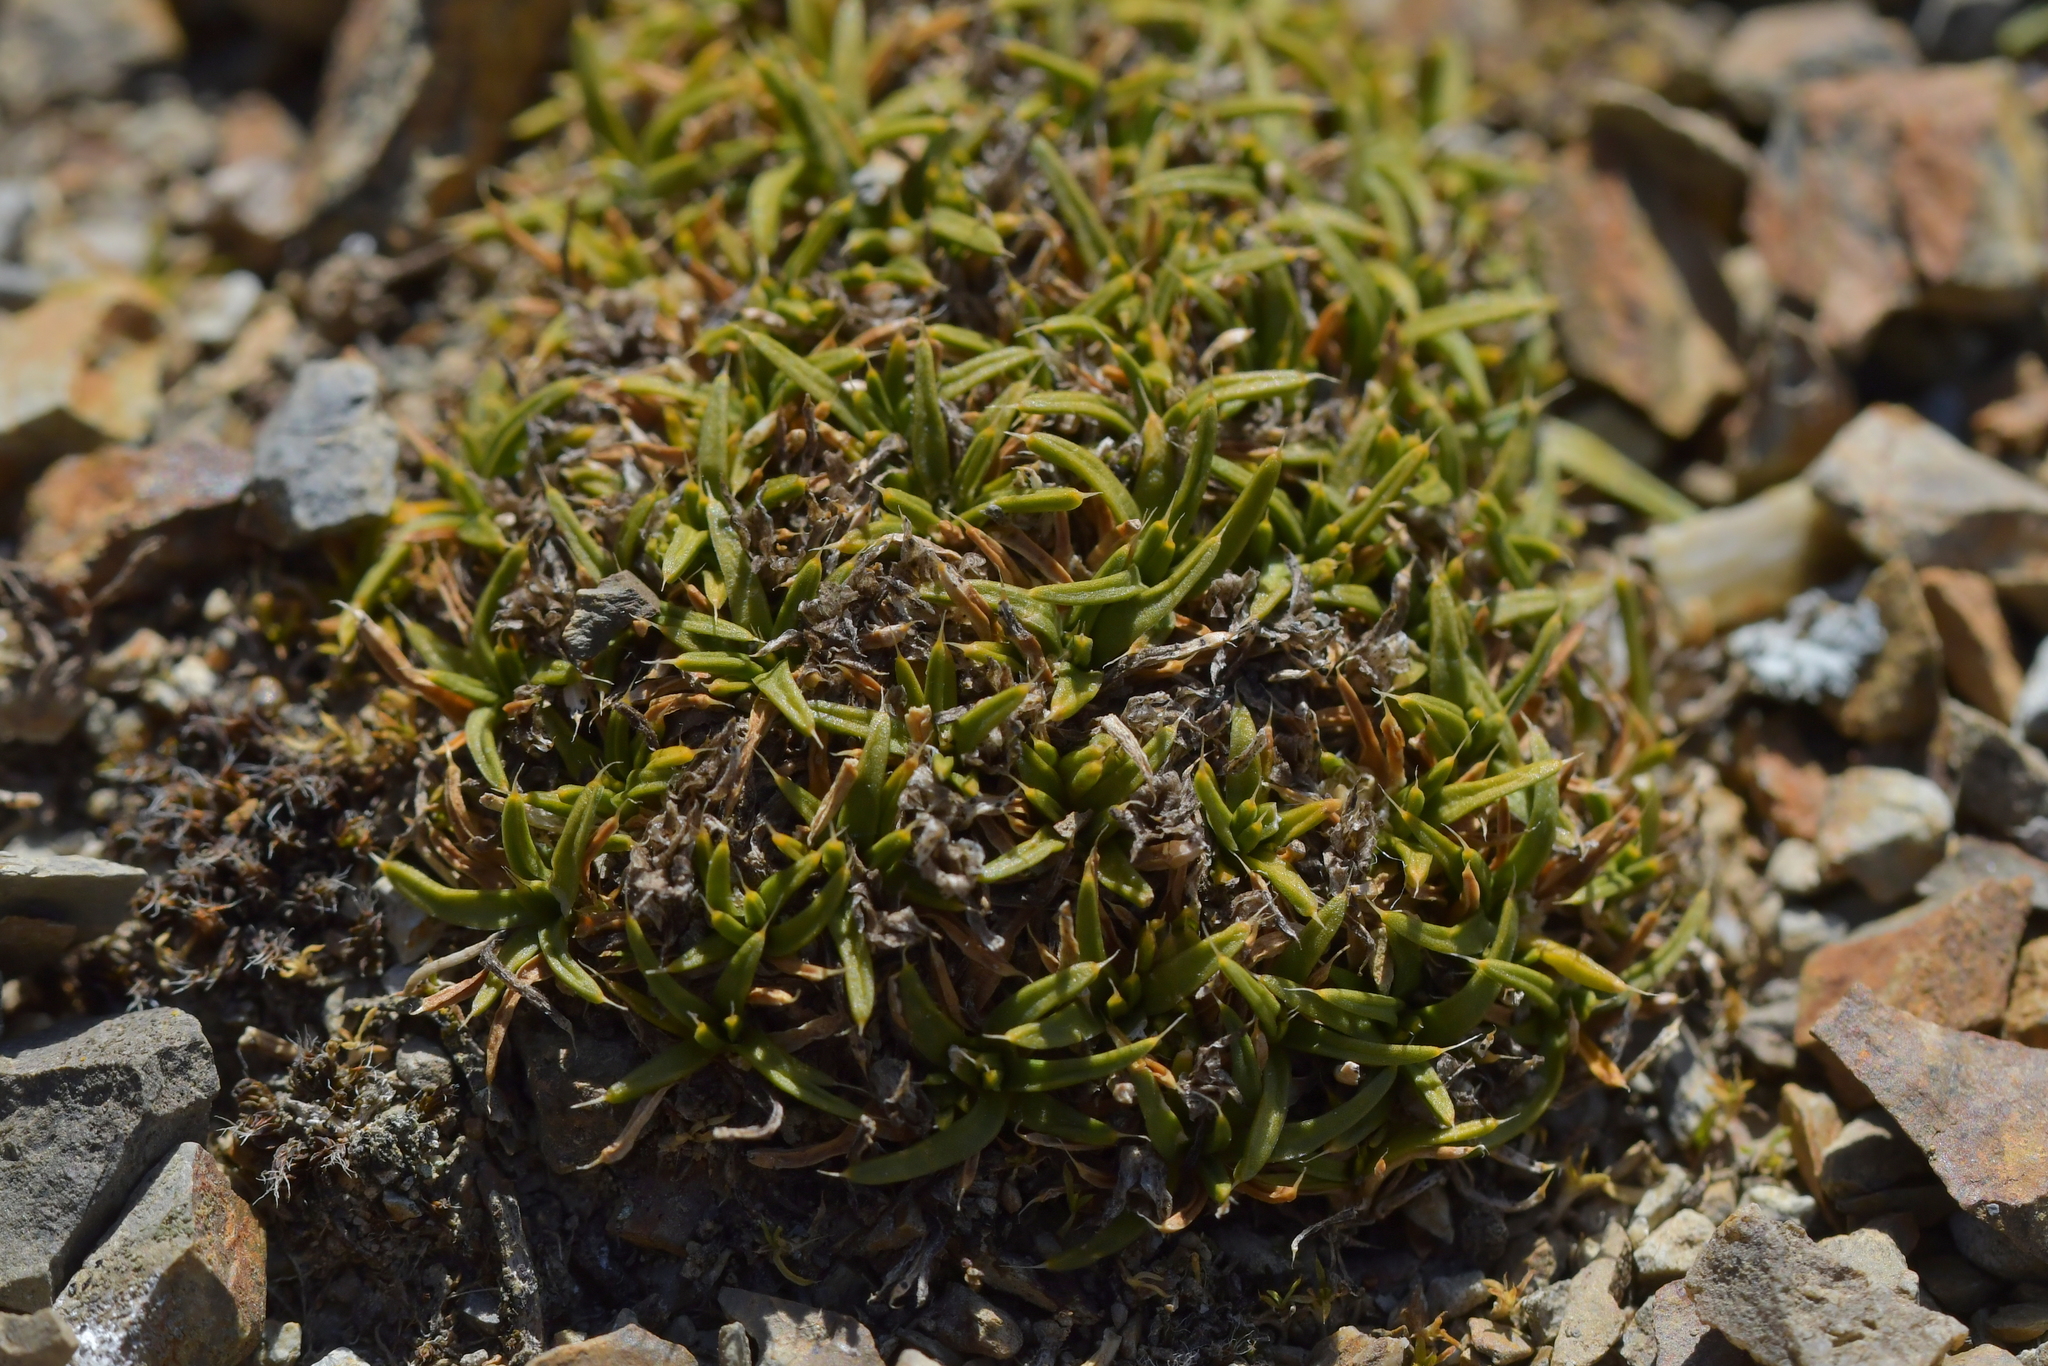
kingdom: Plantae
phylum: Tracheophyta
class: Magnoliopsida
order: Caryophyllales
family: Caryophyllaceae
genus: Colobanthus
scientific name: Colobanthus muelleri
